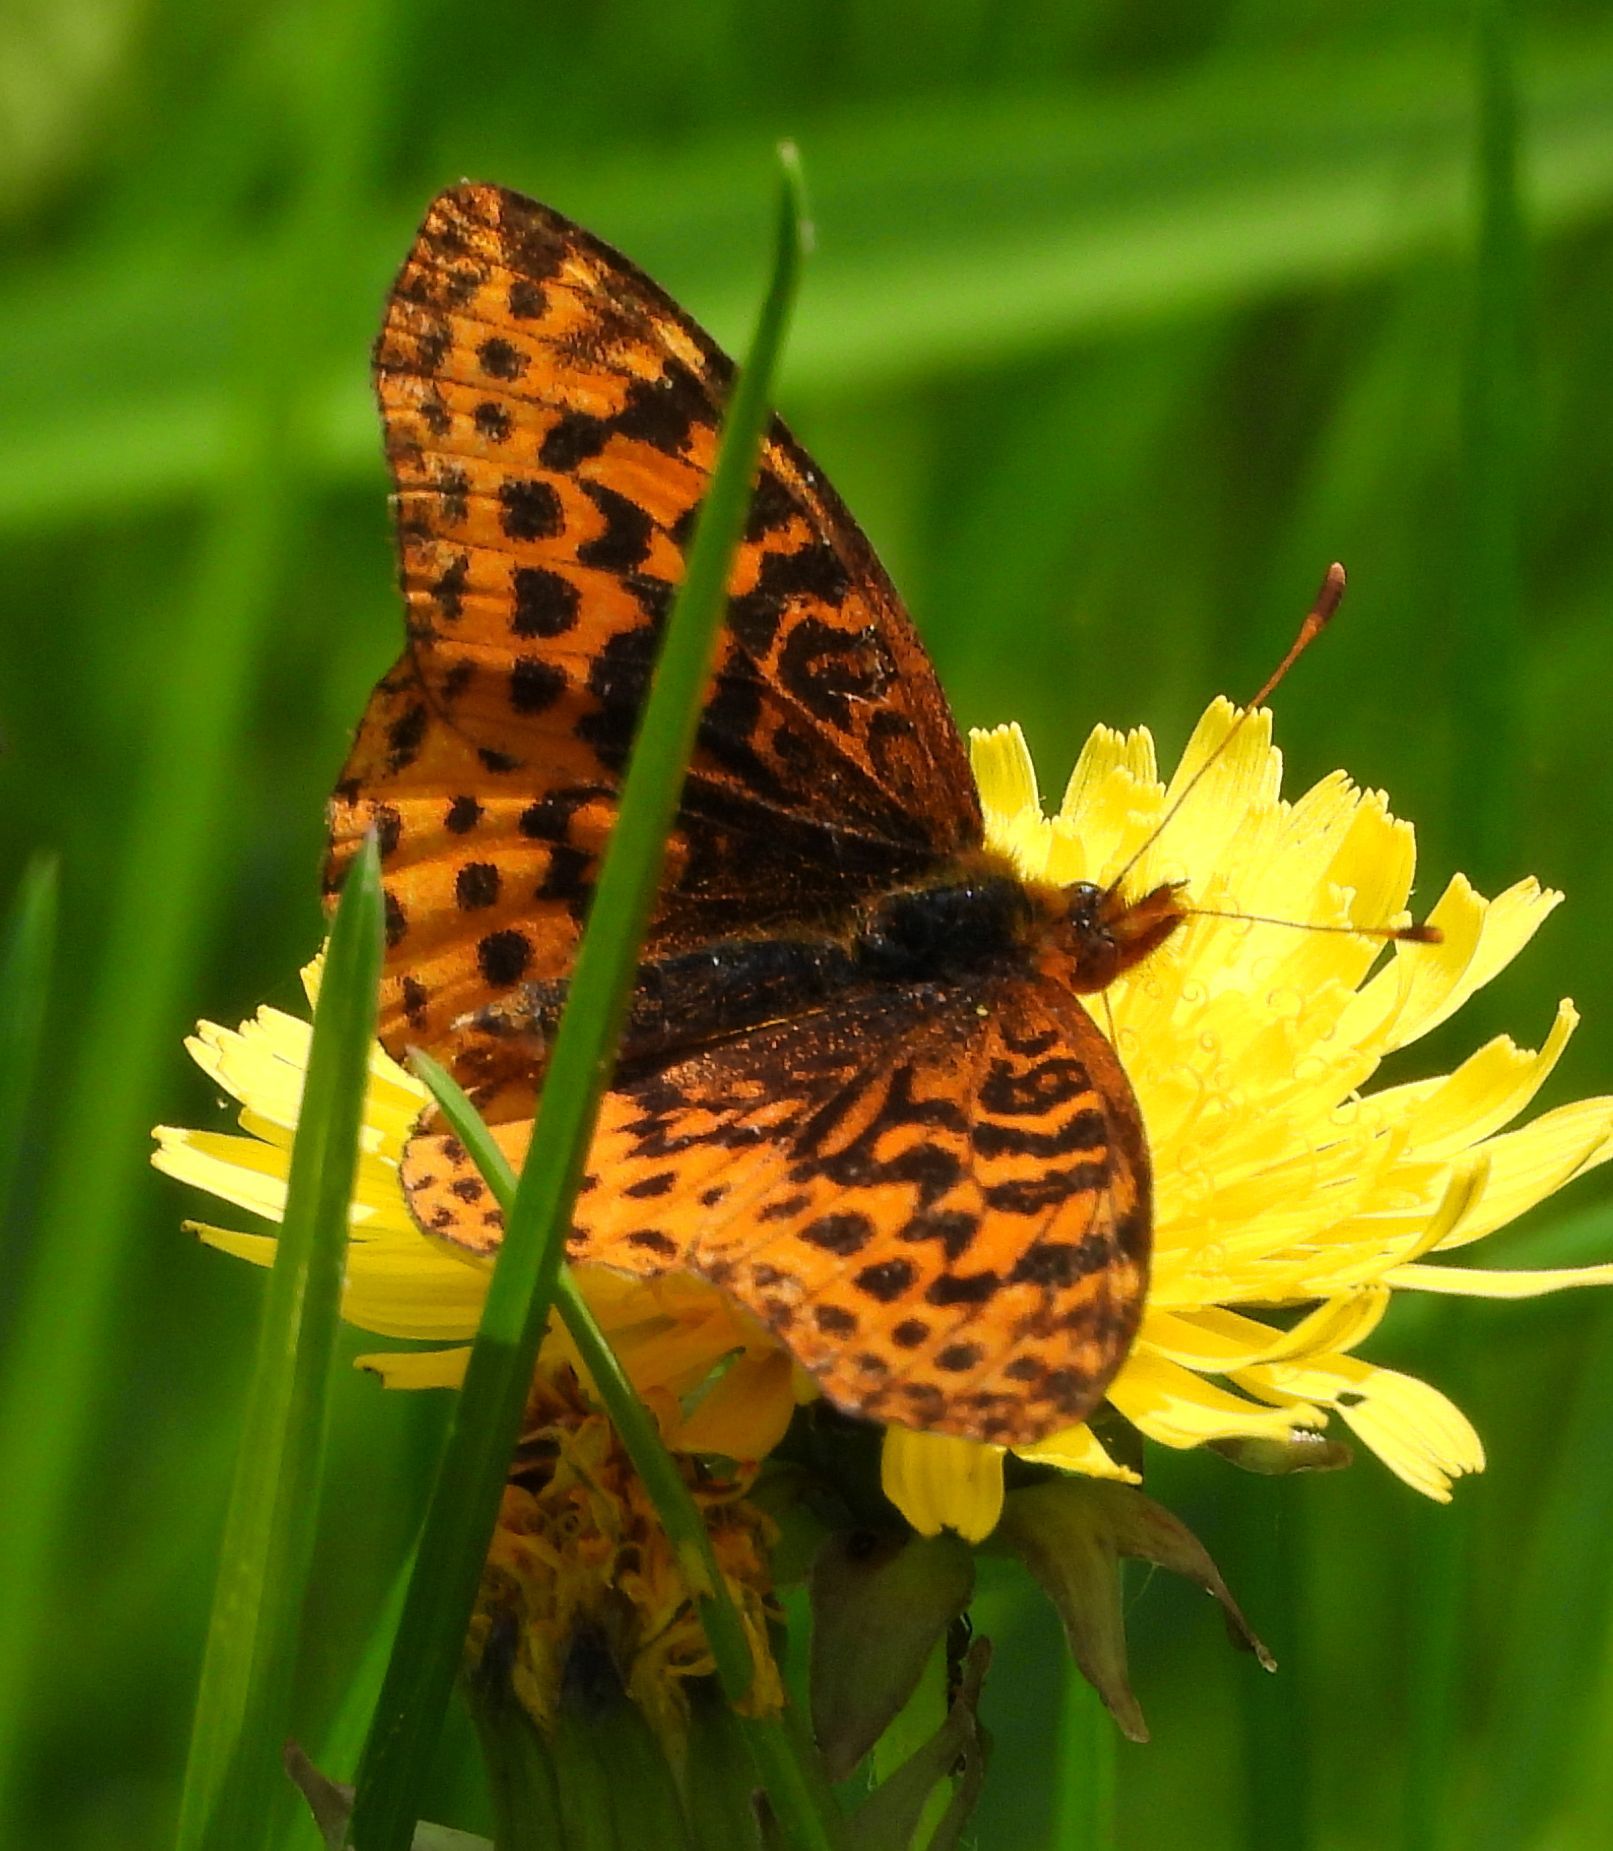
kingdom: Animalia
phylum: Arthropoda
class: Insecta
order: Lepidoptera
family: Nymphalidae
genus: Clossiana
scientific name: Clossiana toddi
